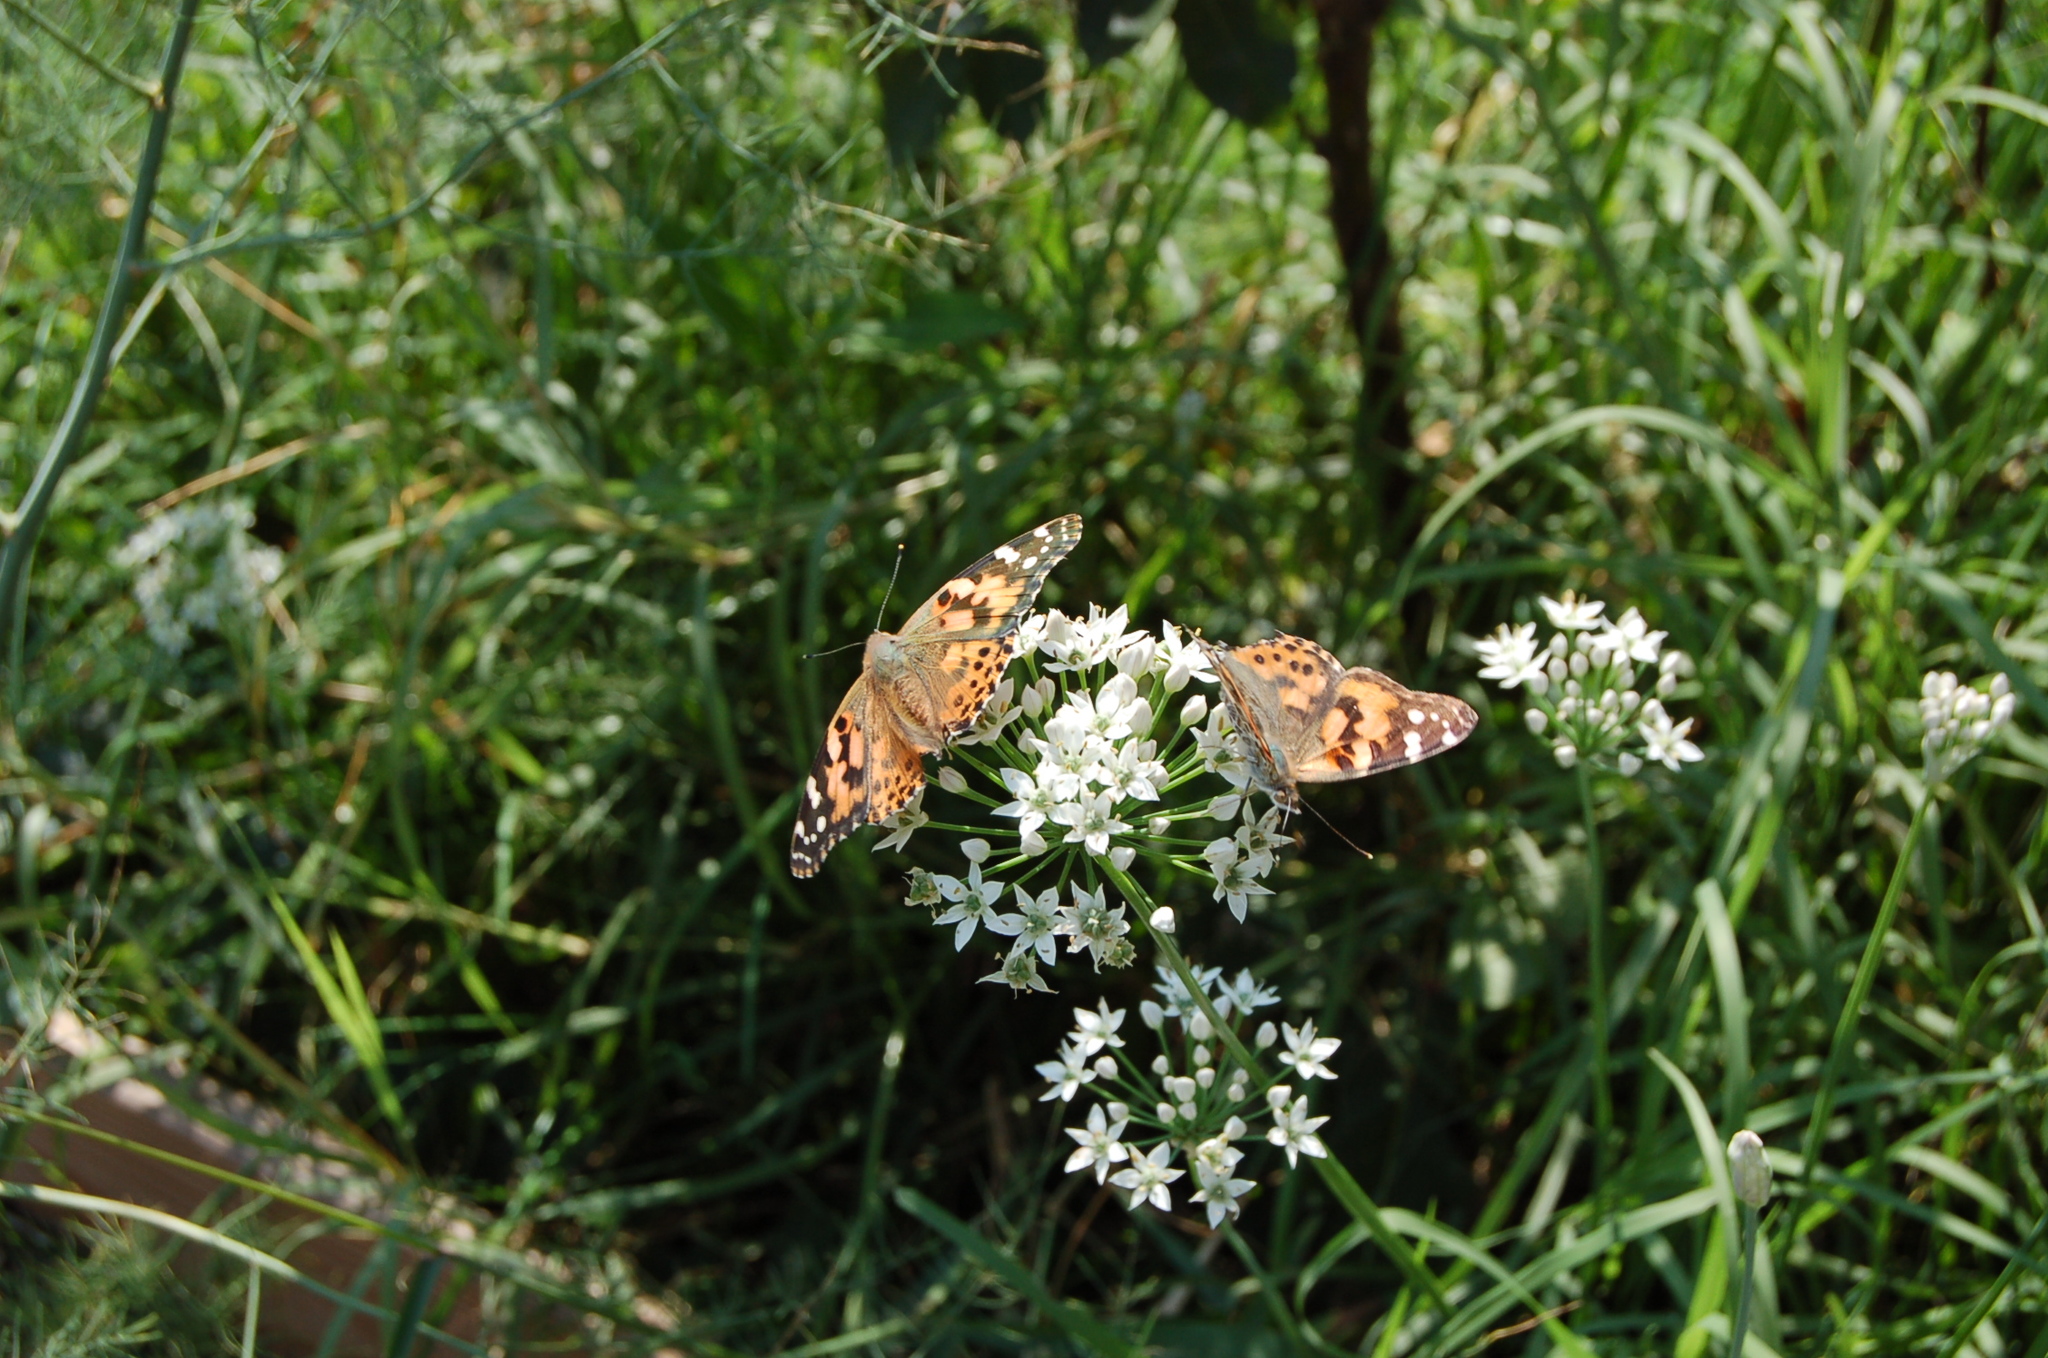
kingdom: Animalia
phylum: Arthropoda
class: Insecta
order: Lepidoptera
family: Nymphalidae
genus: Vanessa
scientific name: Vanessa cardui
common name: Painted lady
